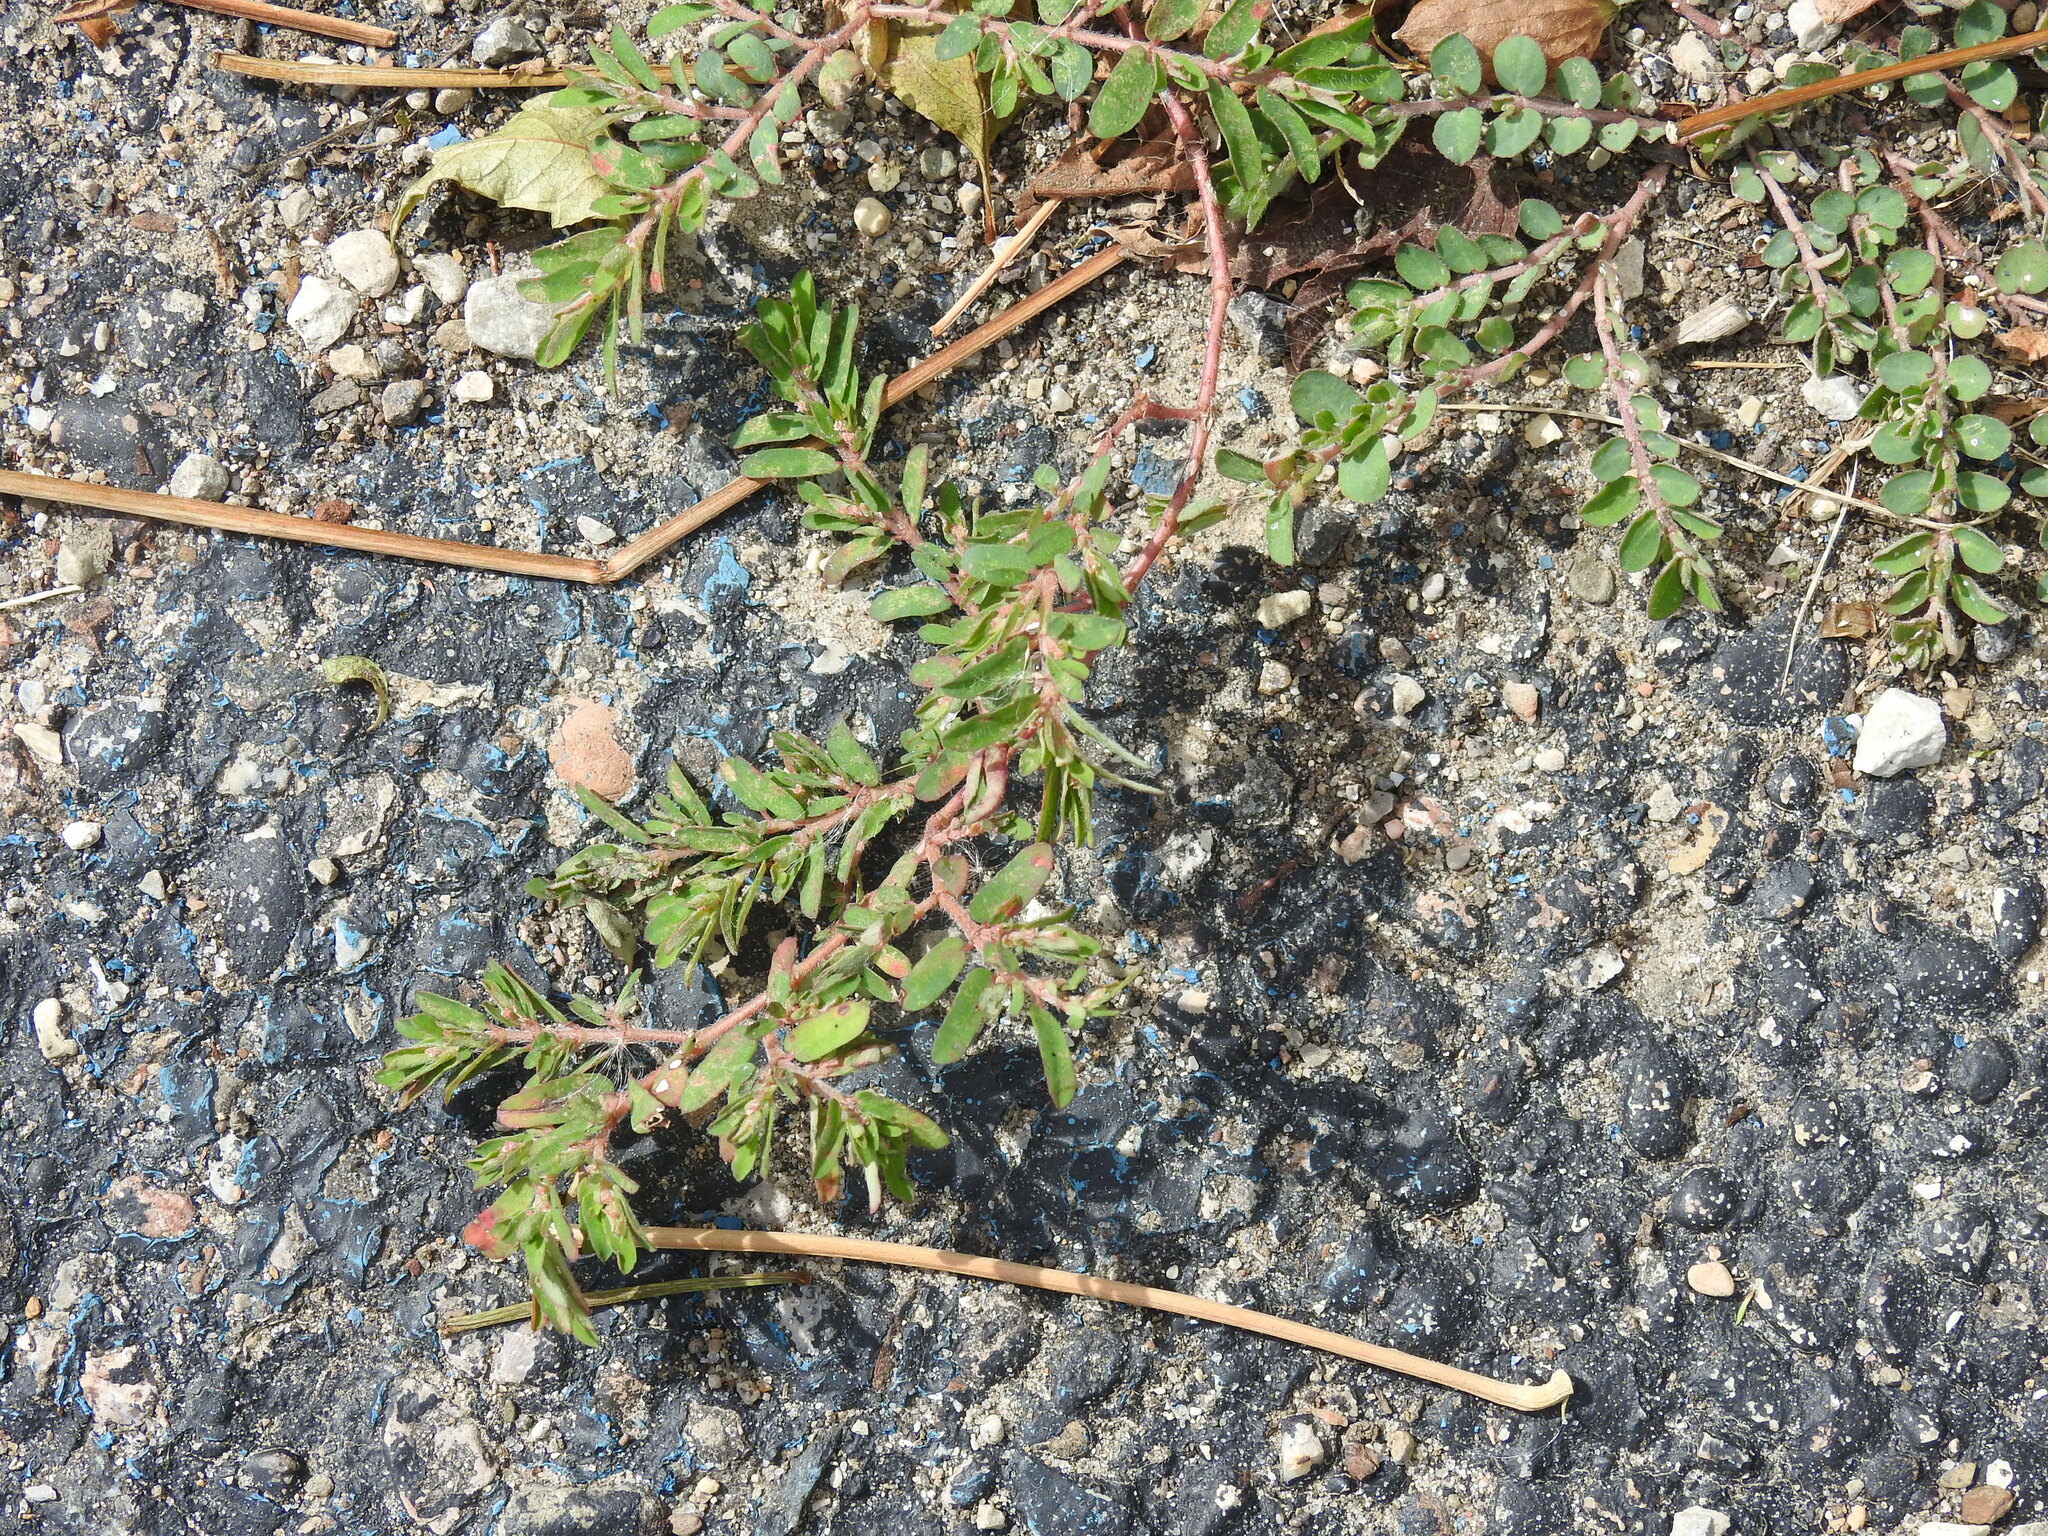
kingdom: Plantae
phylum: Tracheophyta
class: Magnoliopsida
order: Malpighiales
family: Euphorbiaceae
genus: Euphorbia
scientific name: Euphorbia maculata
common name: Spotted spurge
